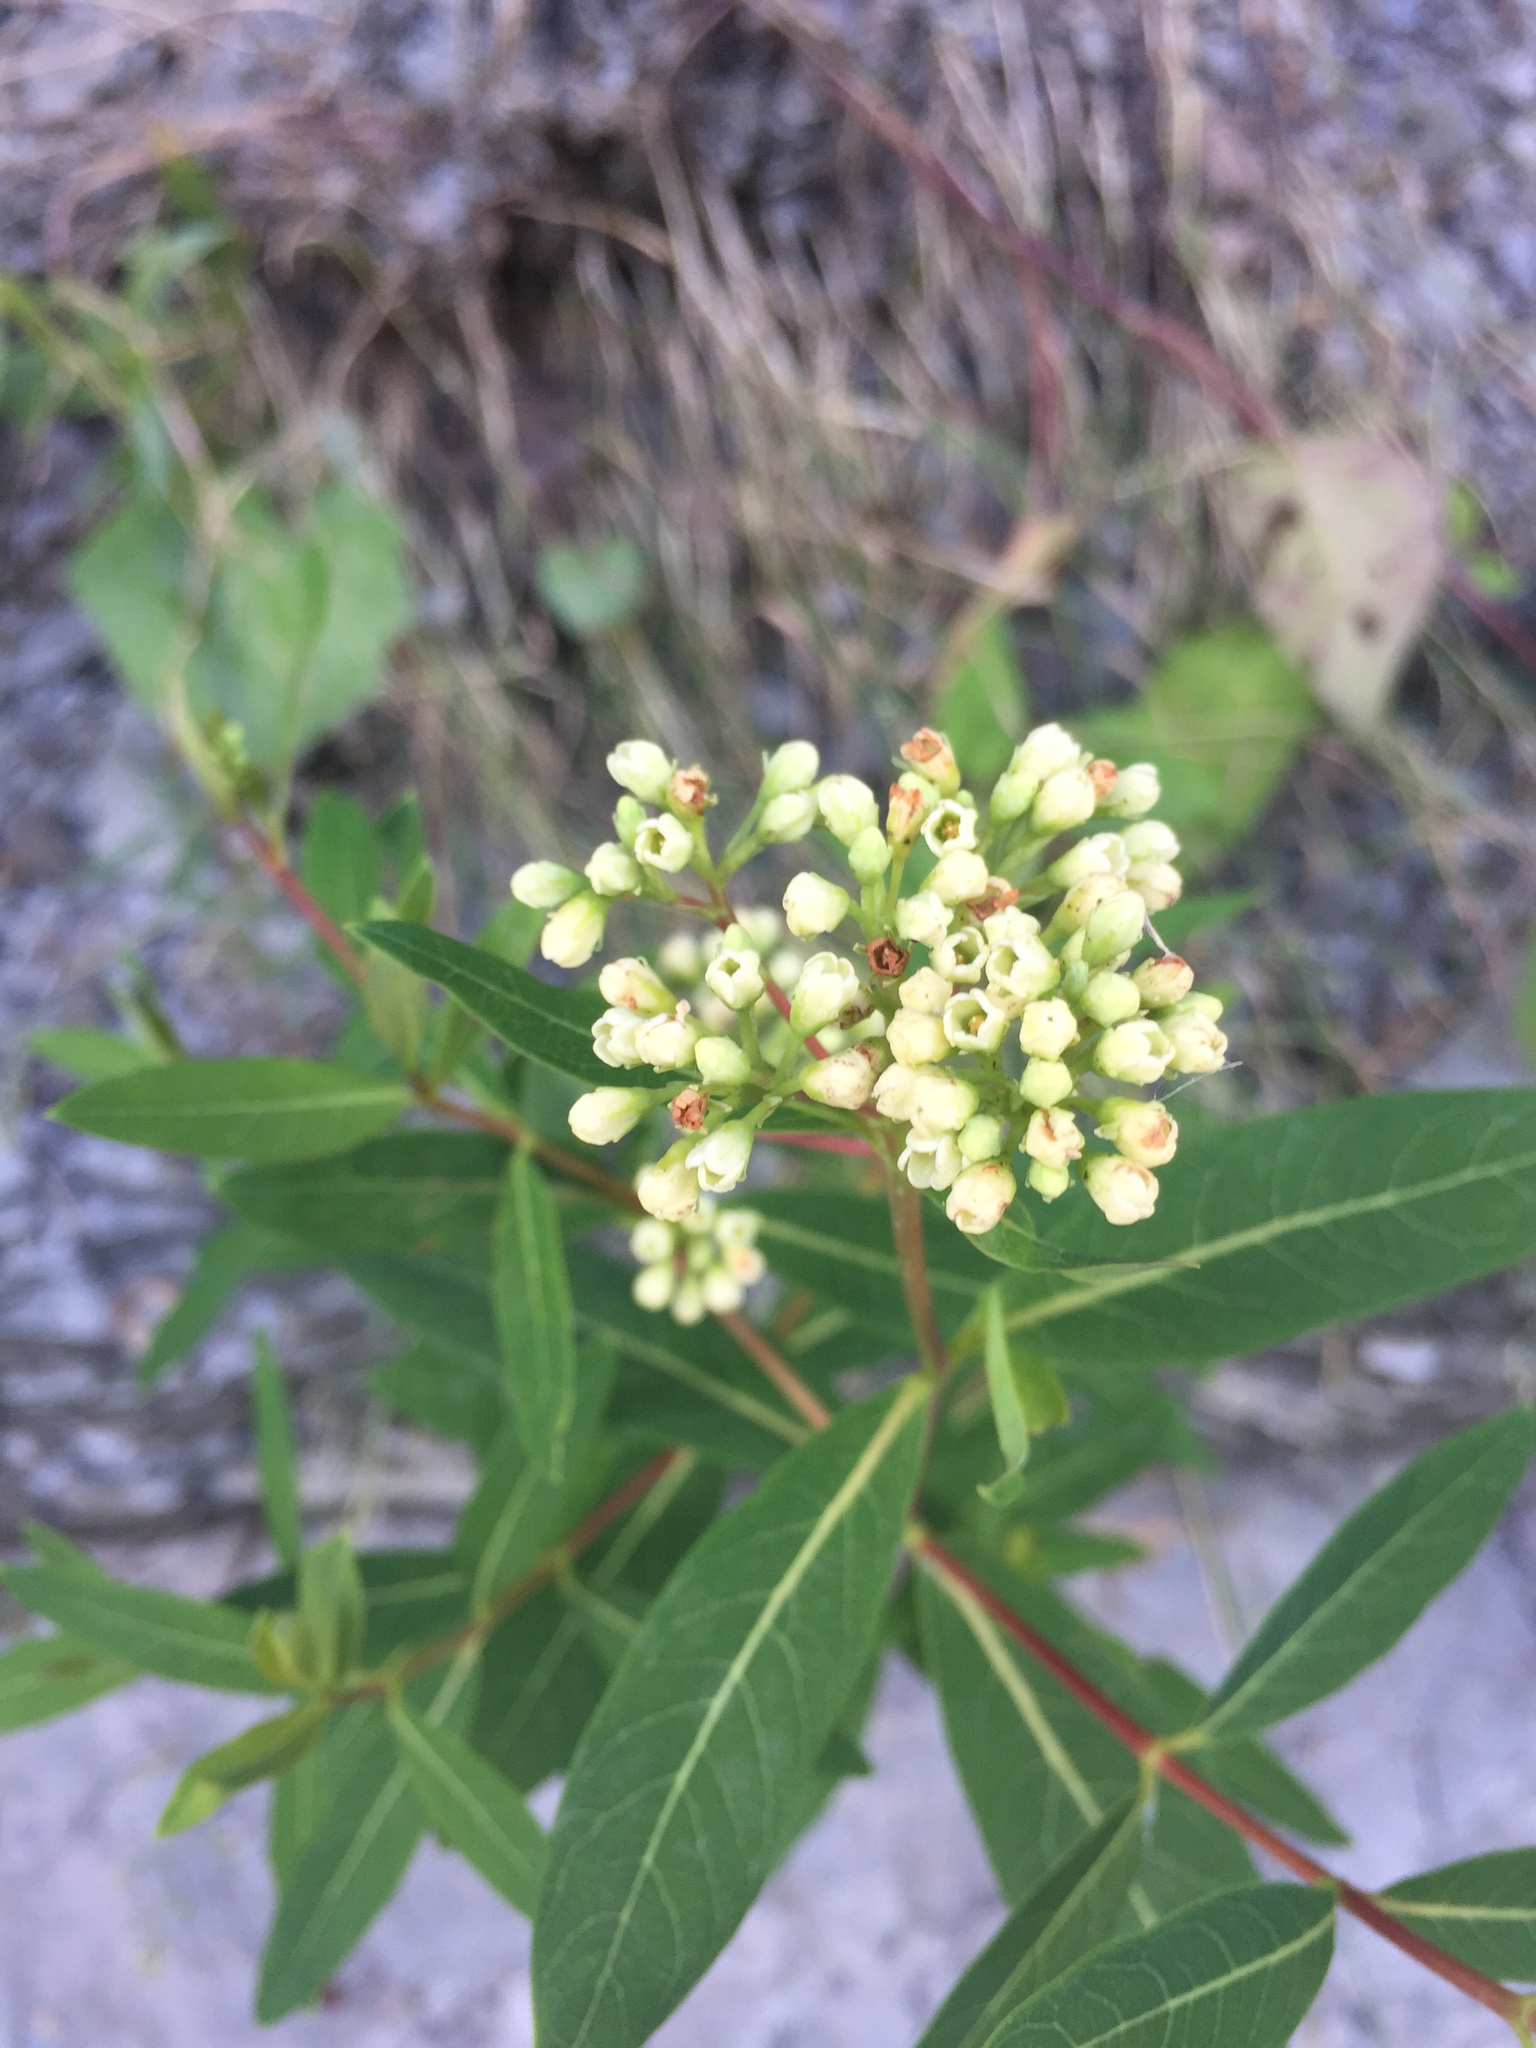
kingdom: Plantae
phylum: Tracheophyta
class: Magnoliopsida
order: Gentianales
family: Apocynaceae
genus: Apocynum
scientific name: Apocynum cannabinum
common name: Hemp dogbane
